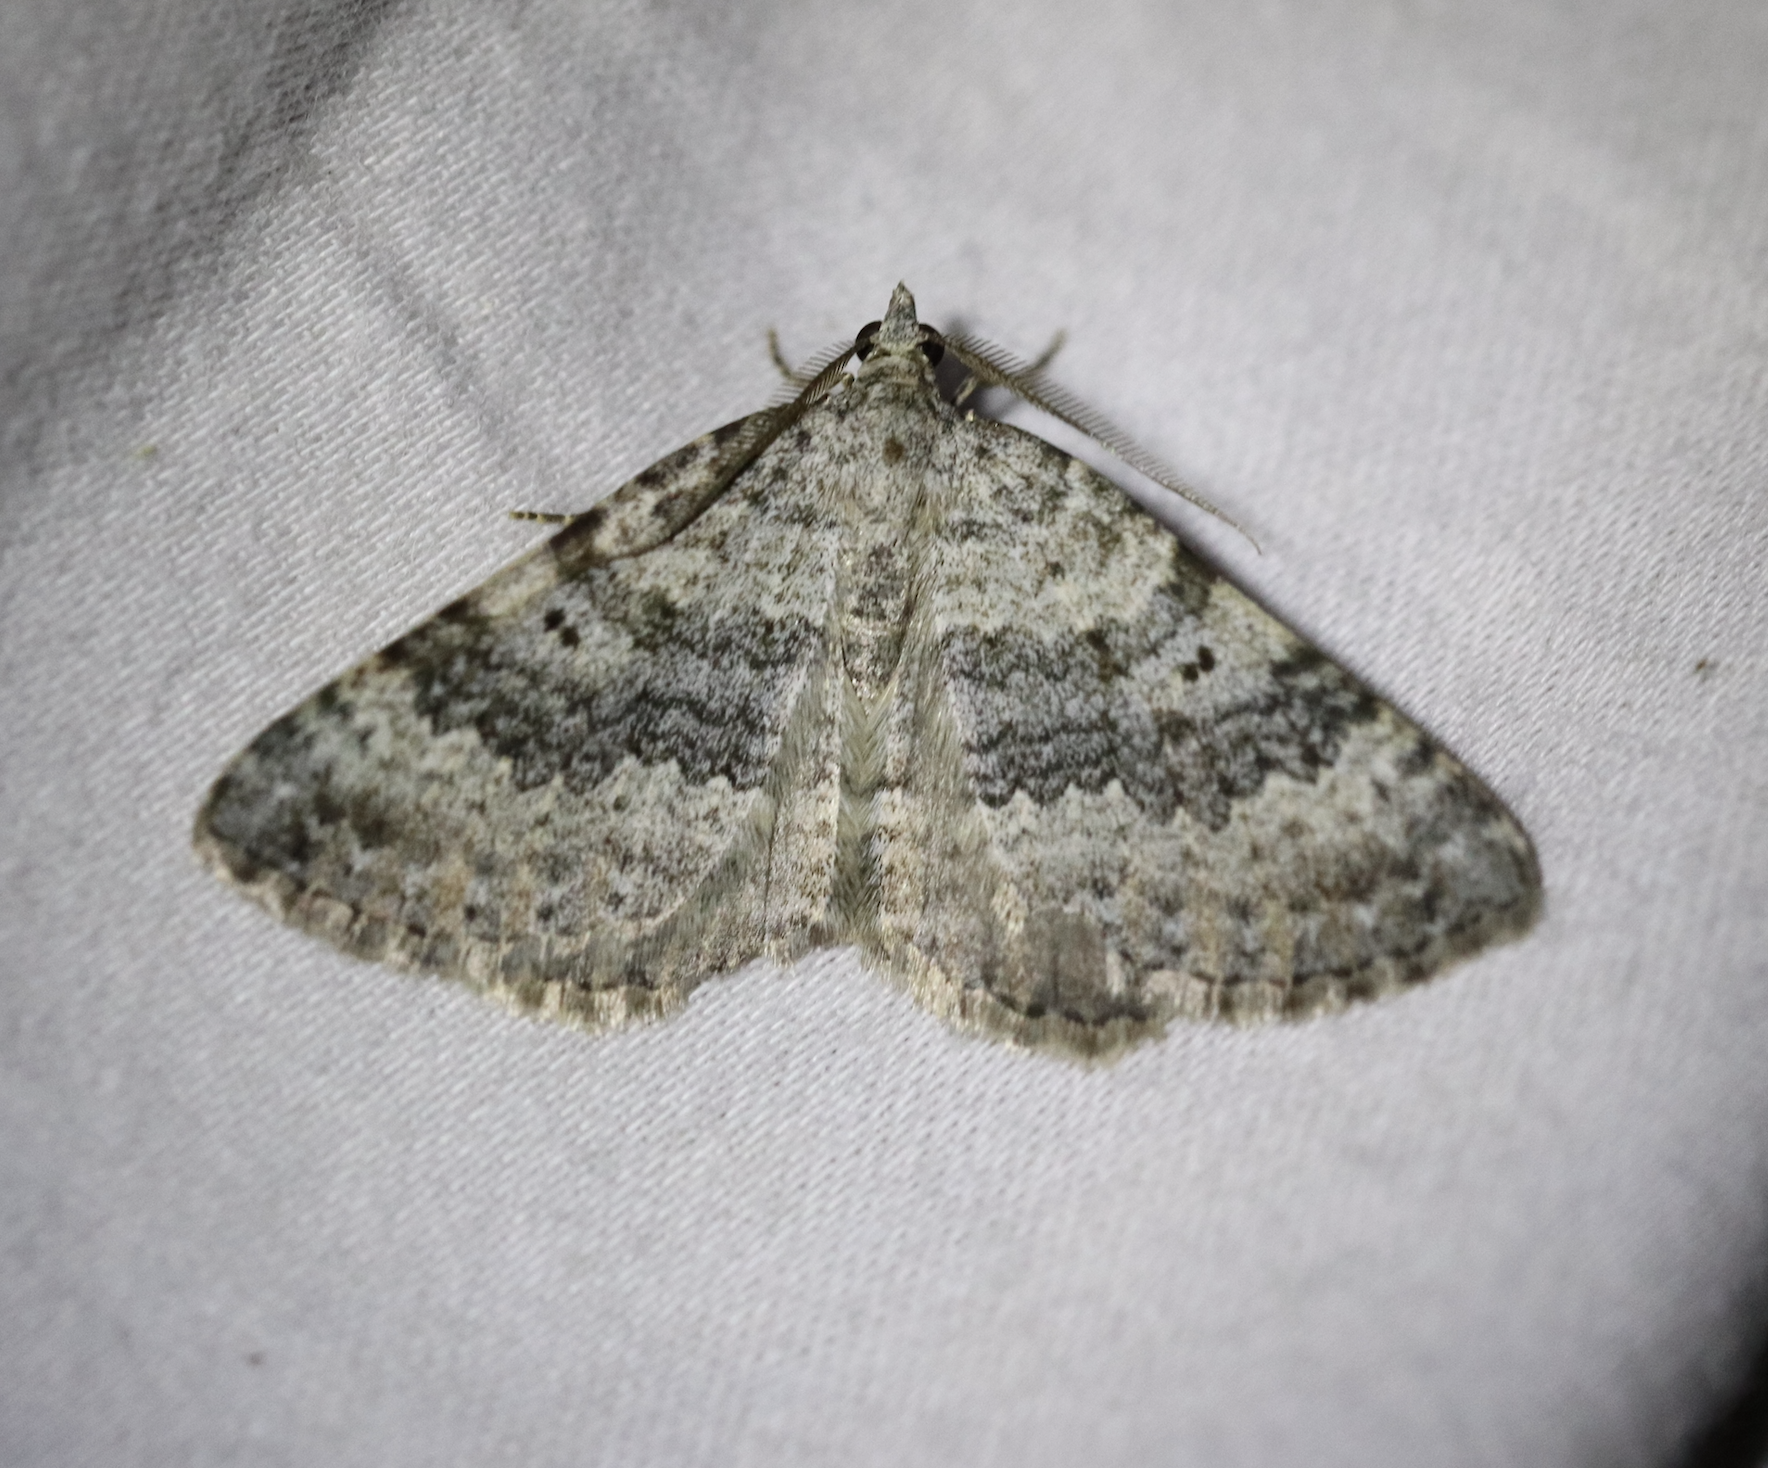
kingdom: Animalia
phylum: Arthropoda
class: Insecta
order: Lepidoptera
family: Geometridae
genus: Scotopteryx
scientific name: Scotopteryx bipunctaria
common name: Chalk carpet
